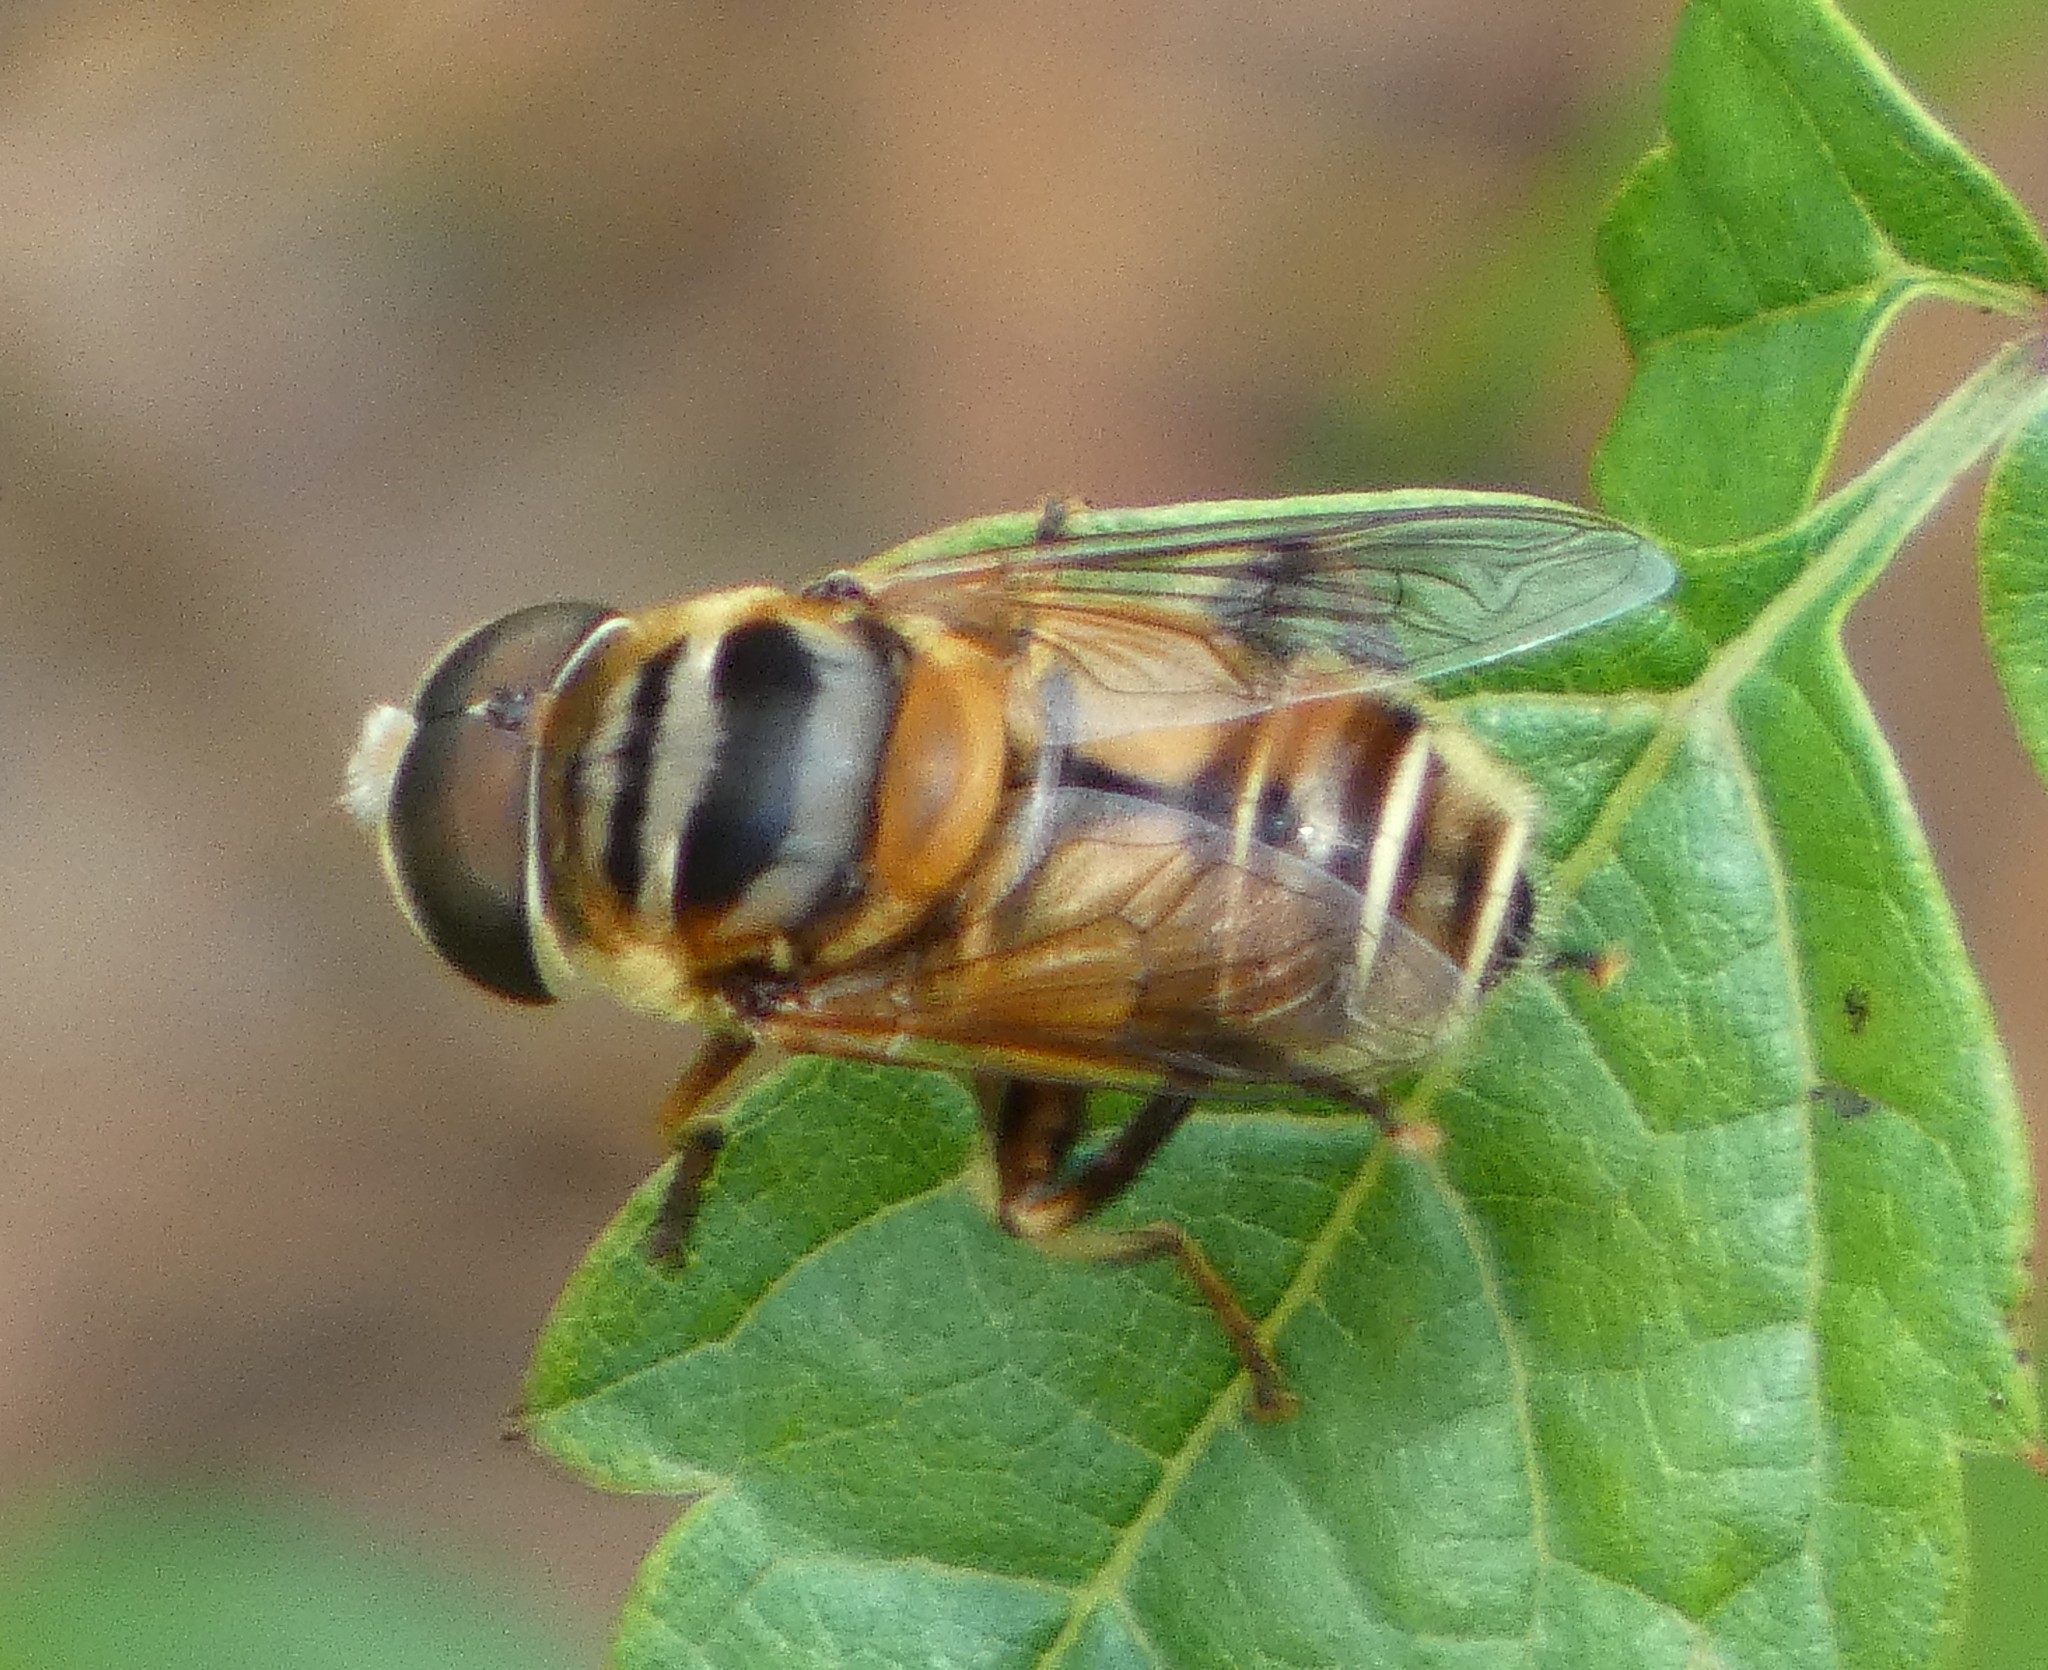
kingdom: Animalia
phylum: Arthropoda
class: Insecta
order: Diptera
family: Syrphidae
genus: Palpada
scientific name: Palpada vinetorum
